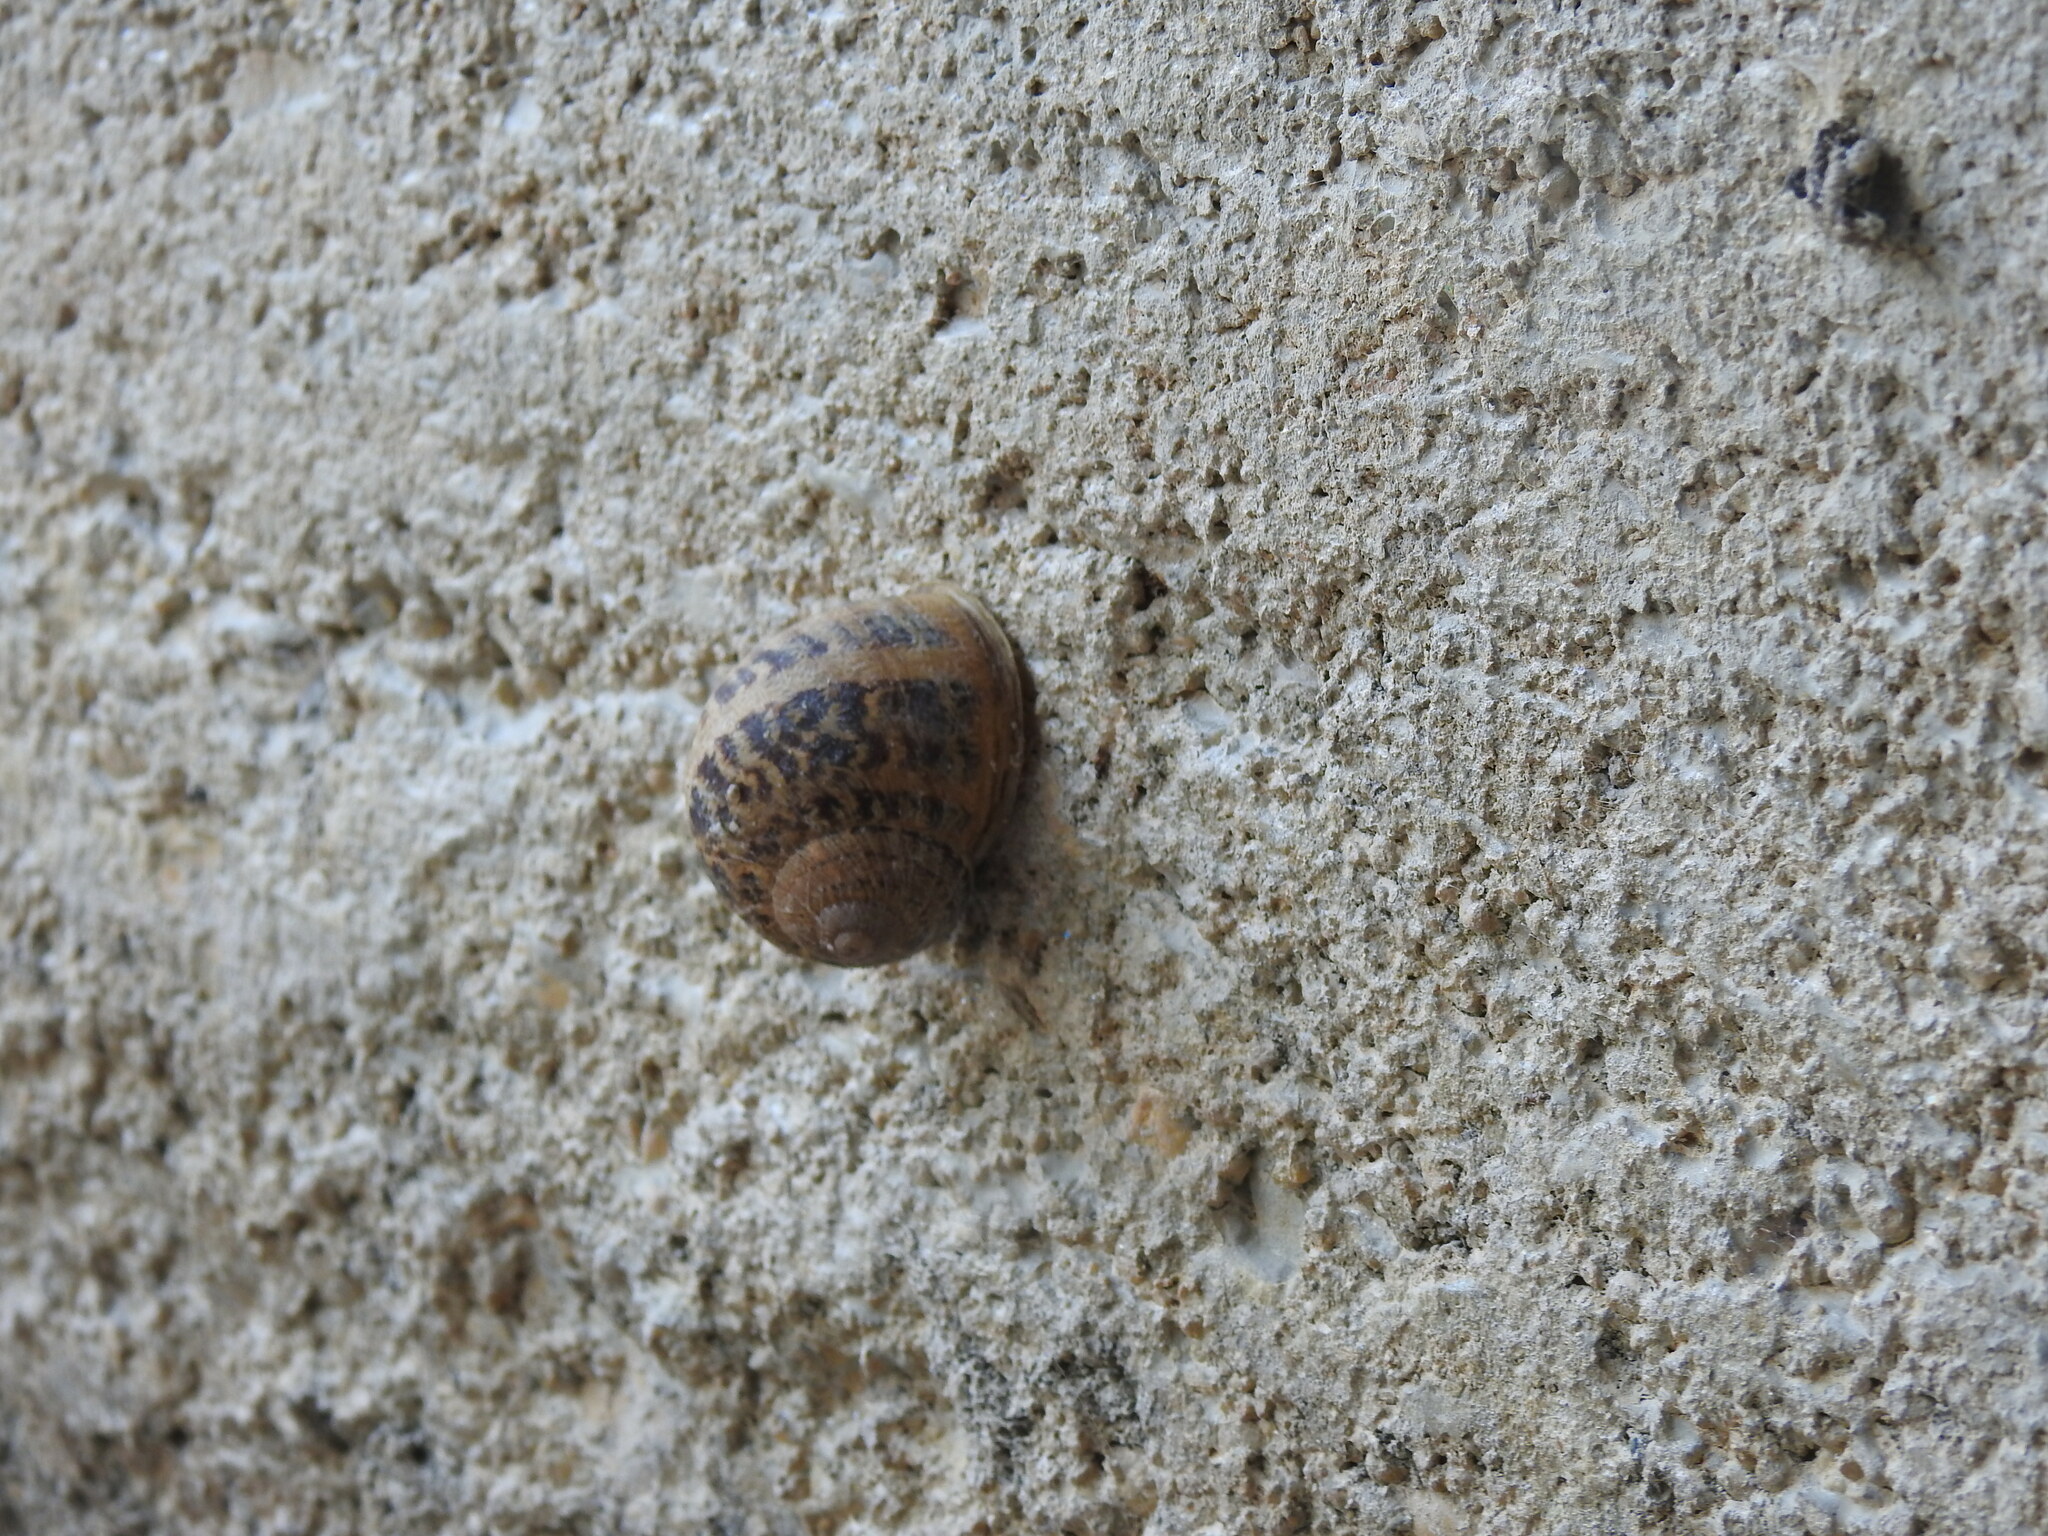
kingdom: Animalia
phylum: Mollusca
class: Gastropoda
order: Stylommatophora
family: Helicidae
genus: Cornu
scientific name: Cornu aspersum
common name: Brown garden snail
